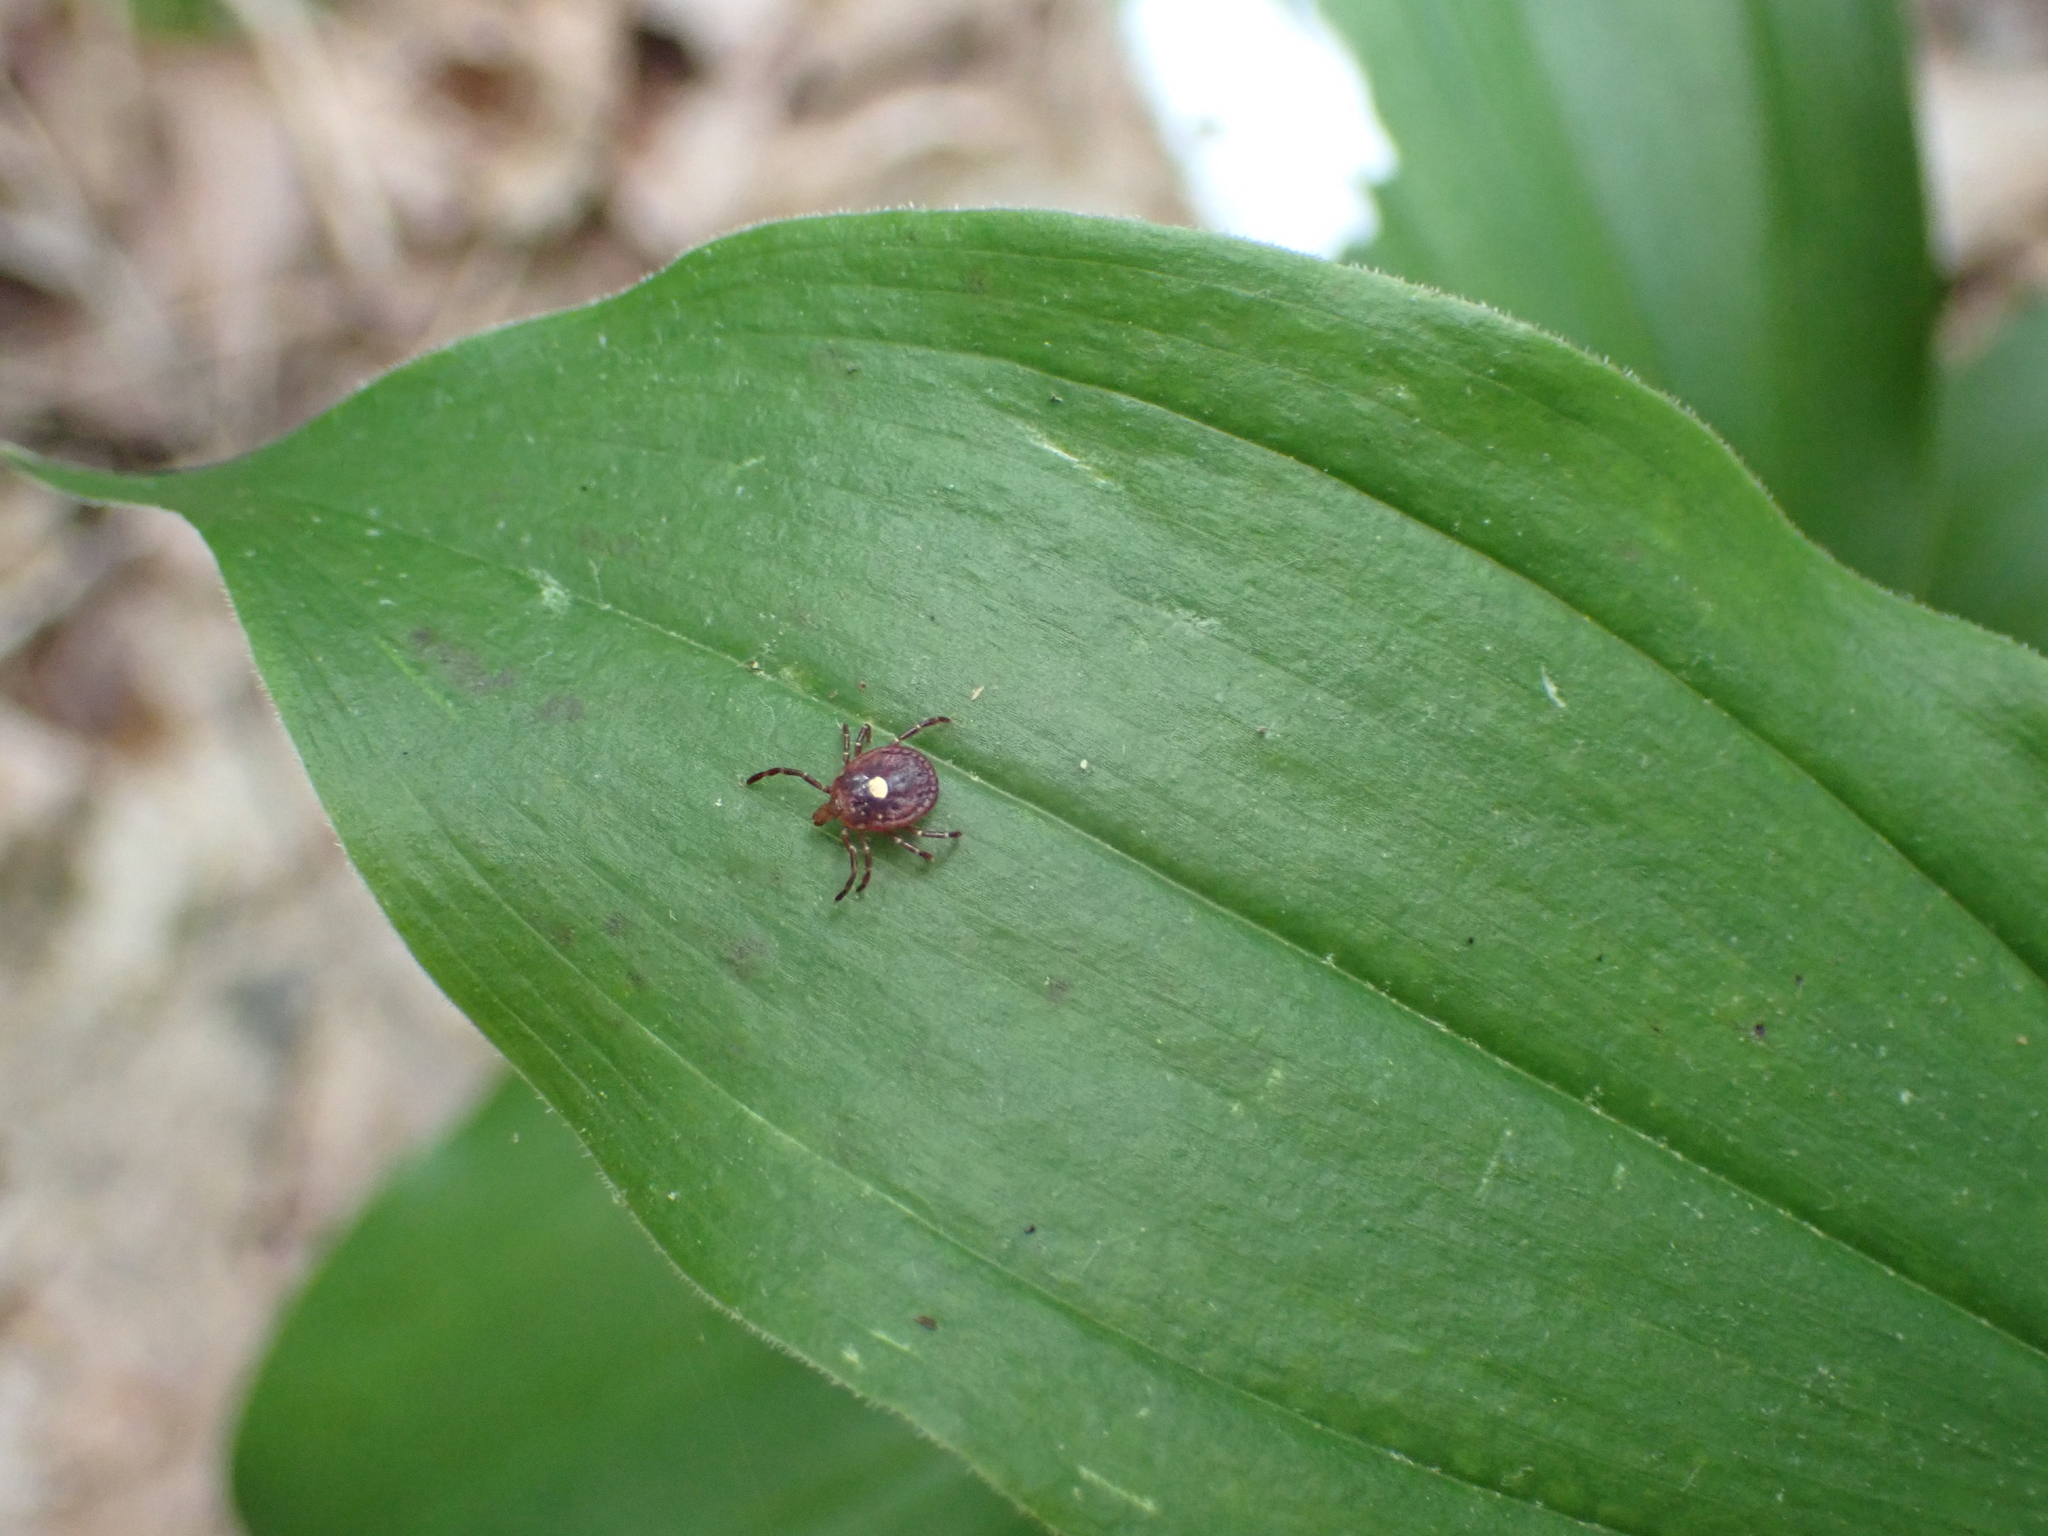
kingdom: Animalia
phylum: Arthropoda
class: Arachnida
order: Ixodida
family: Ixodidae
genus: Amblyomma
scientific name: Amblyomma americanum
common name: Lone star tick
